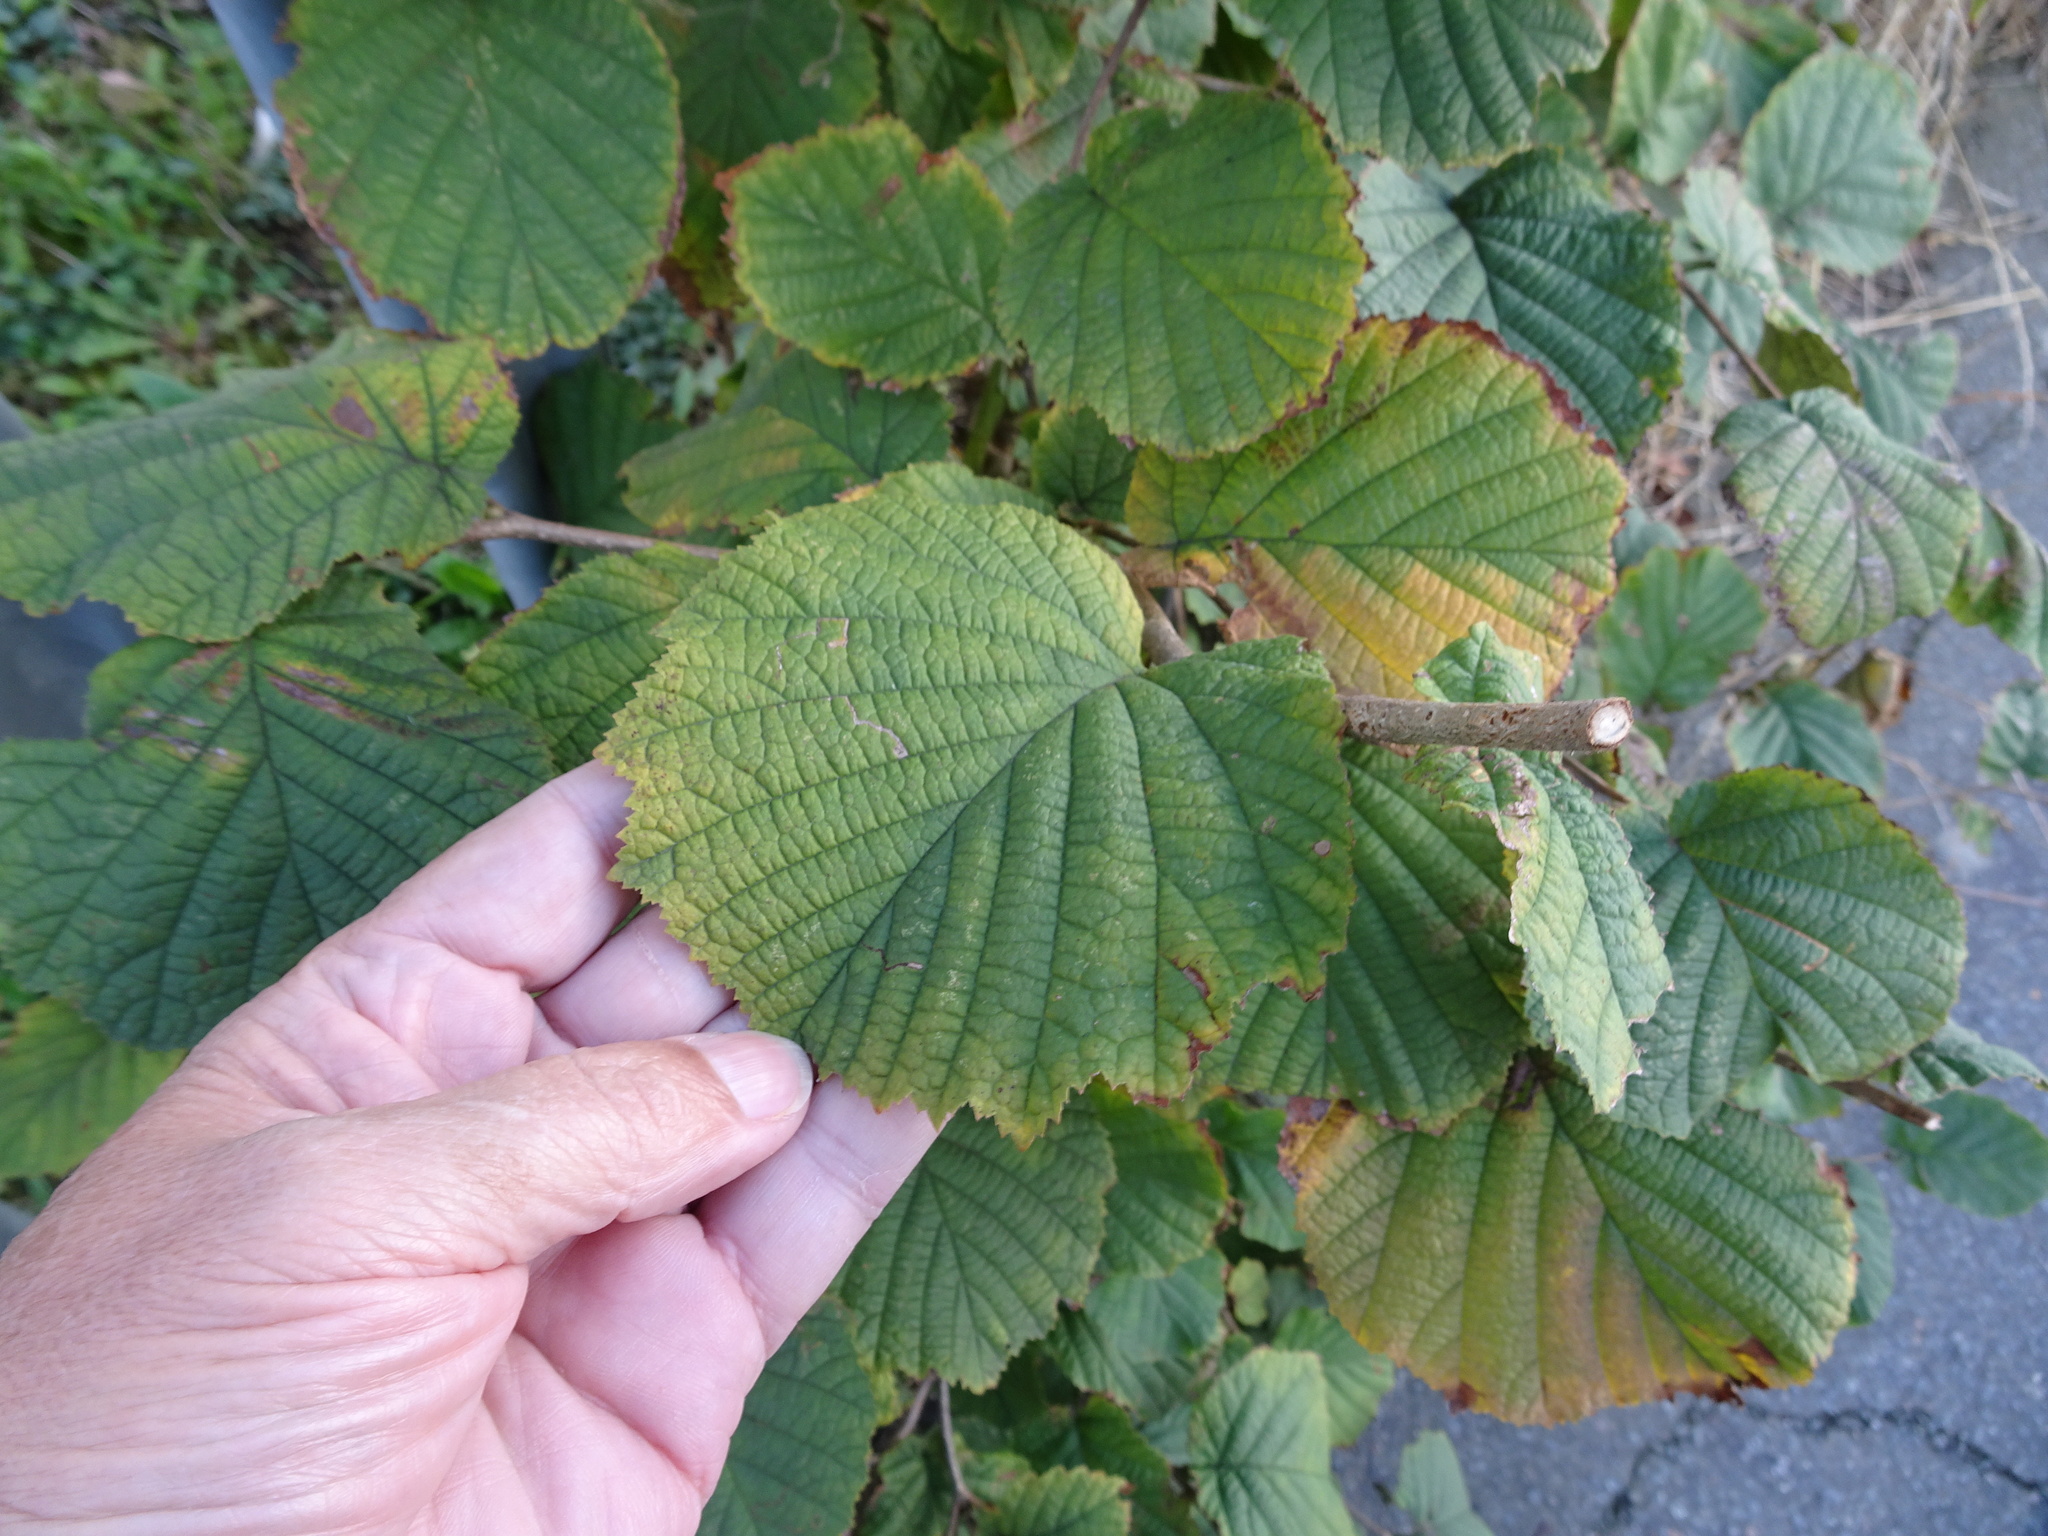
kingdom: Plantae
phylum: Tracheophyta
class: Magnoliopsida
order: Fagales
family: Betulaceae
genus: Corylus
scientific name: Corylus avellana
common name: European hazel
